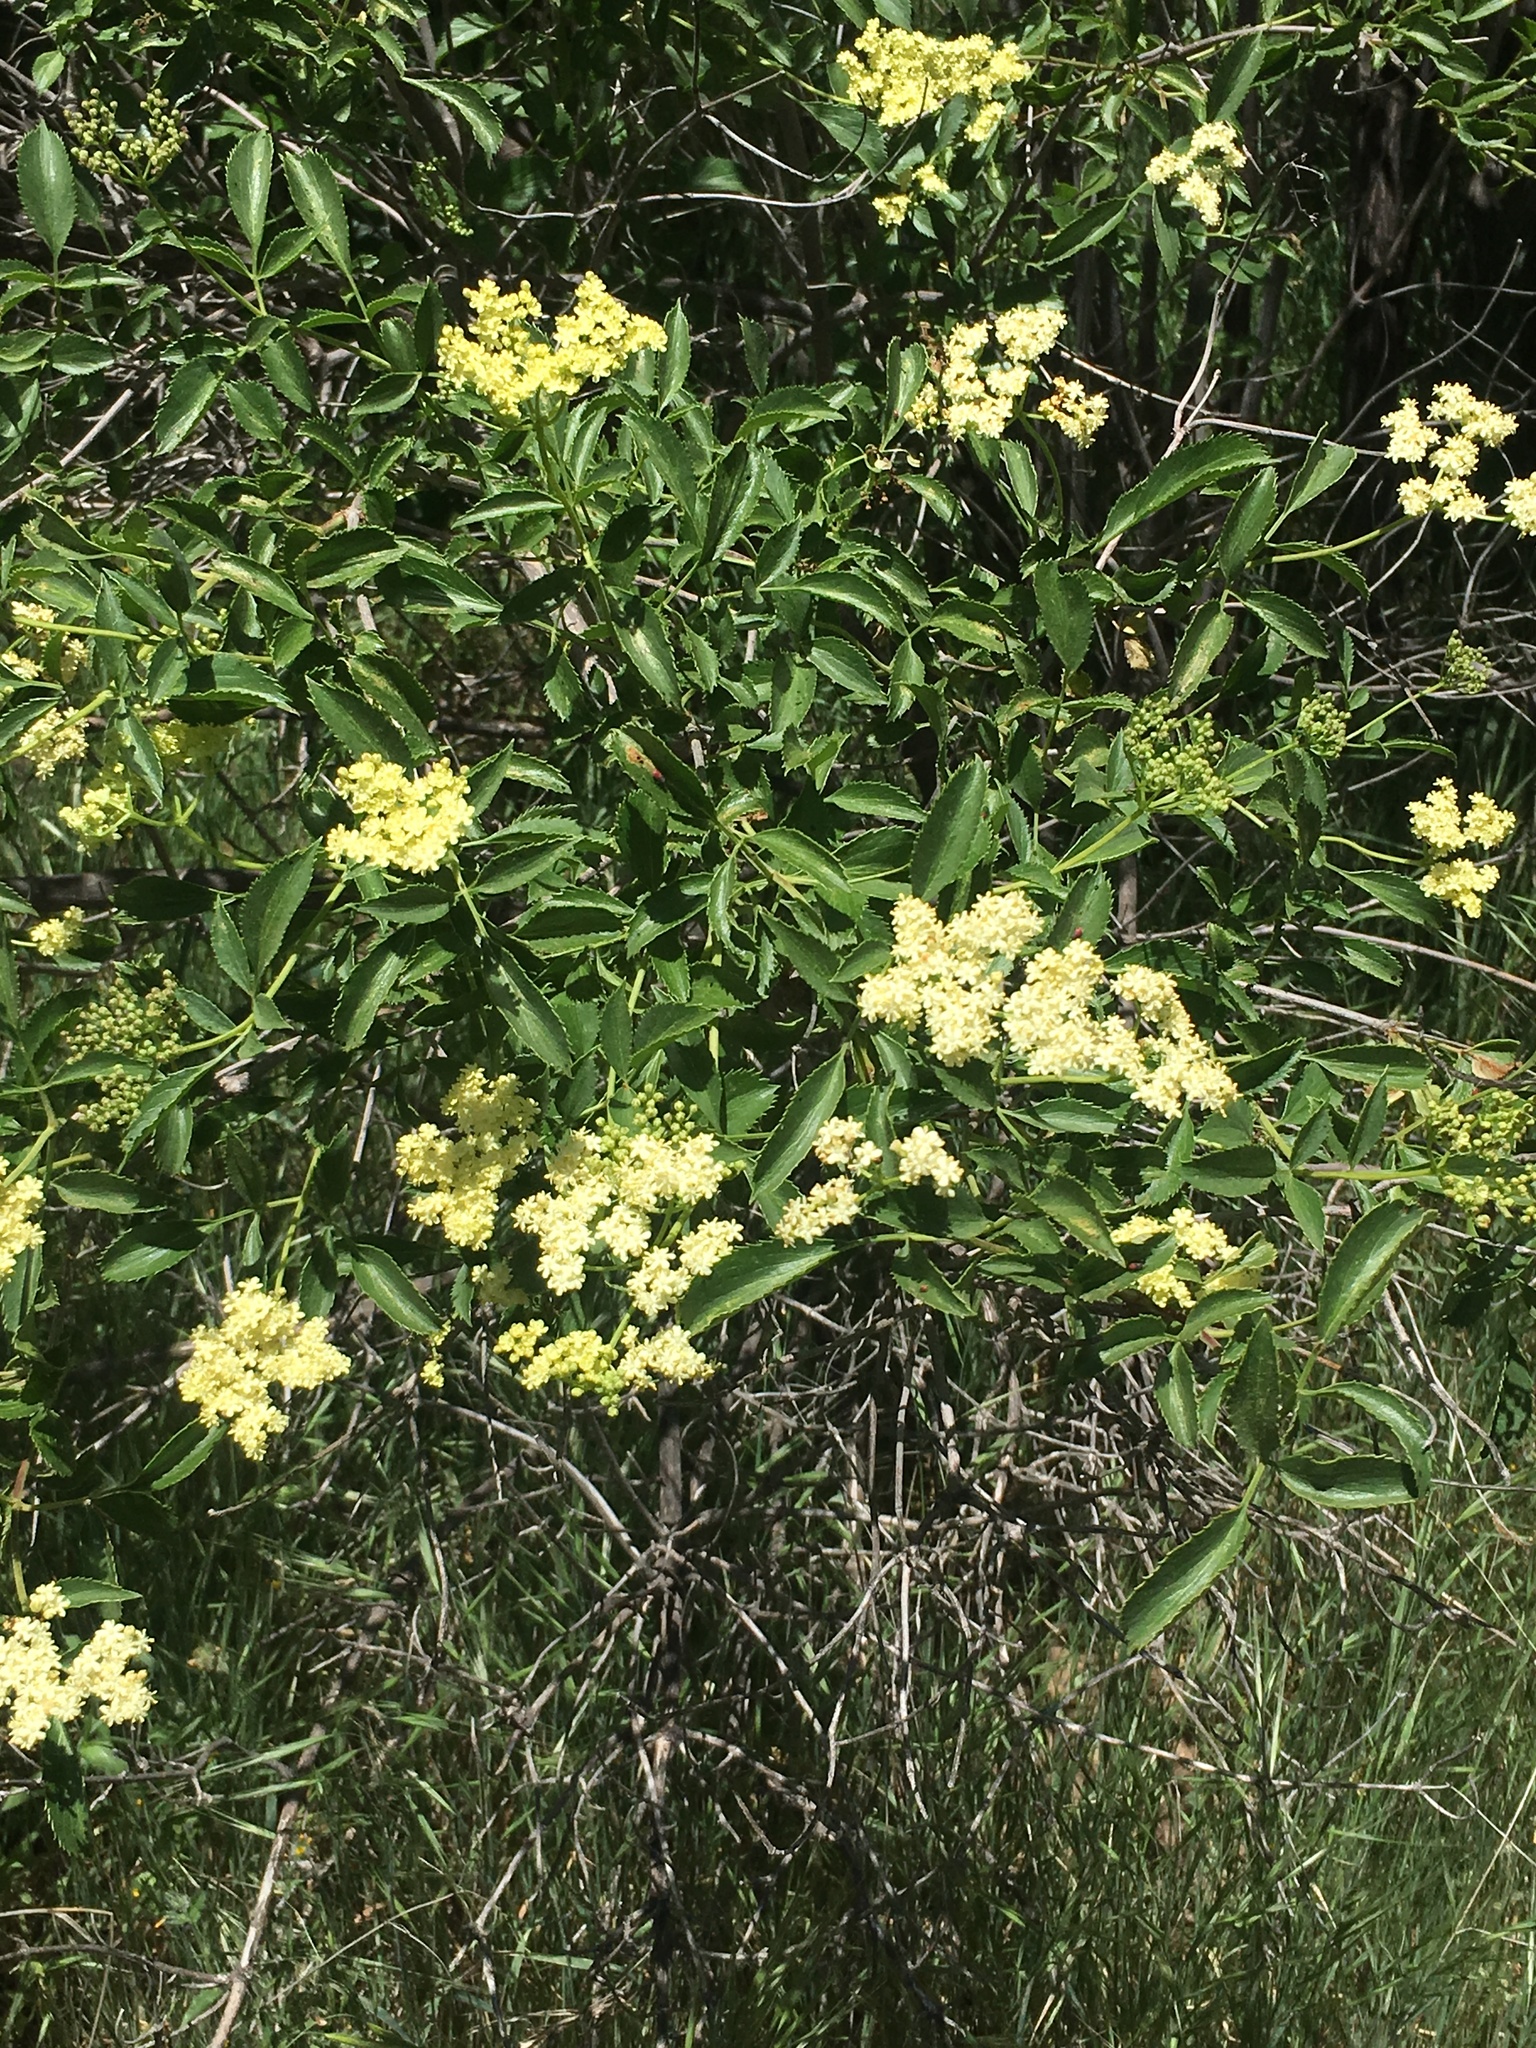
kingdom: Plantae
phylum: Tracheophyta
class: Magnoliopsida
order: Dipsacales
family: Viburnaceae
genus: Sambucus
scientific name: Sambucus cerulea
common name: Blue elder
